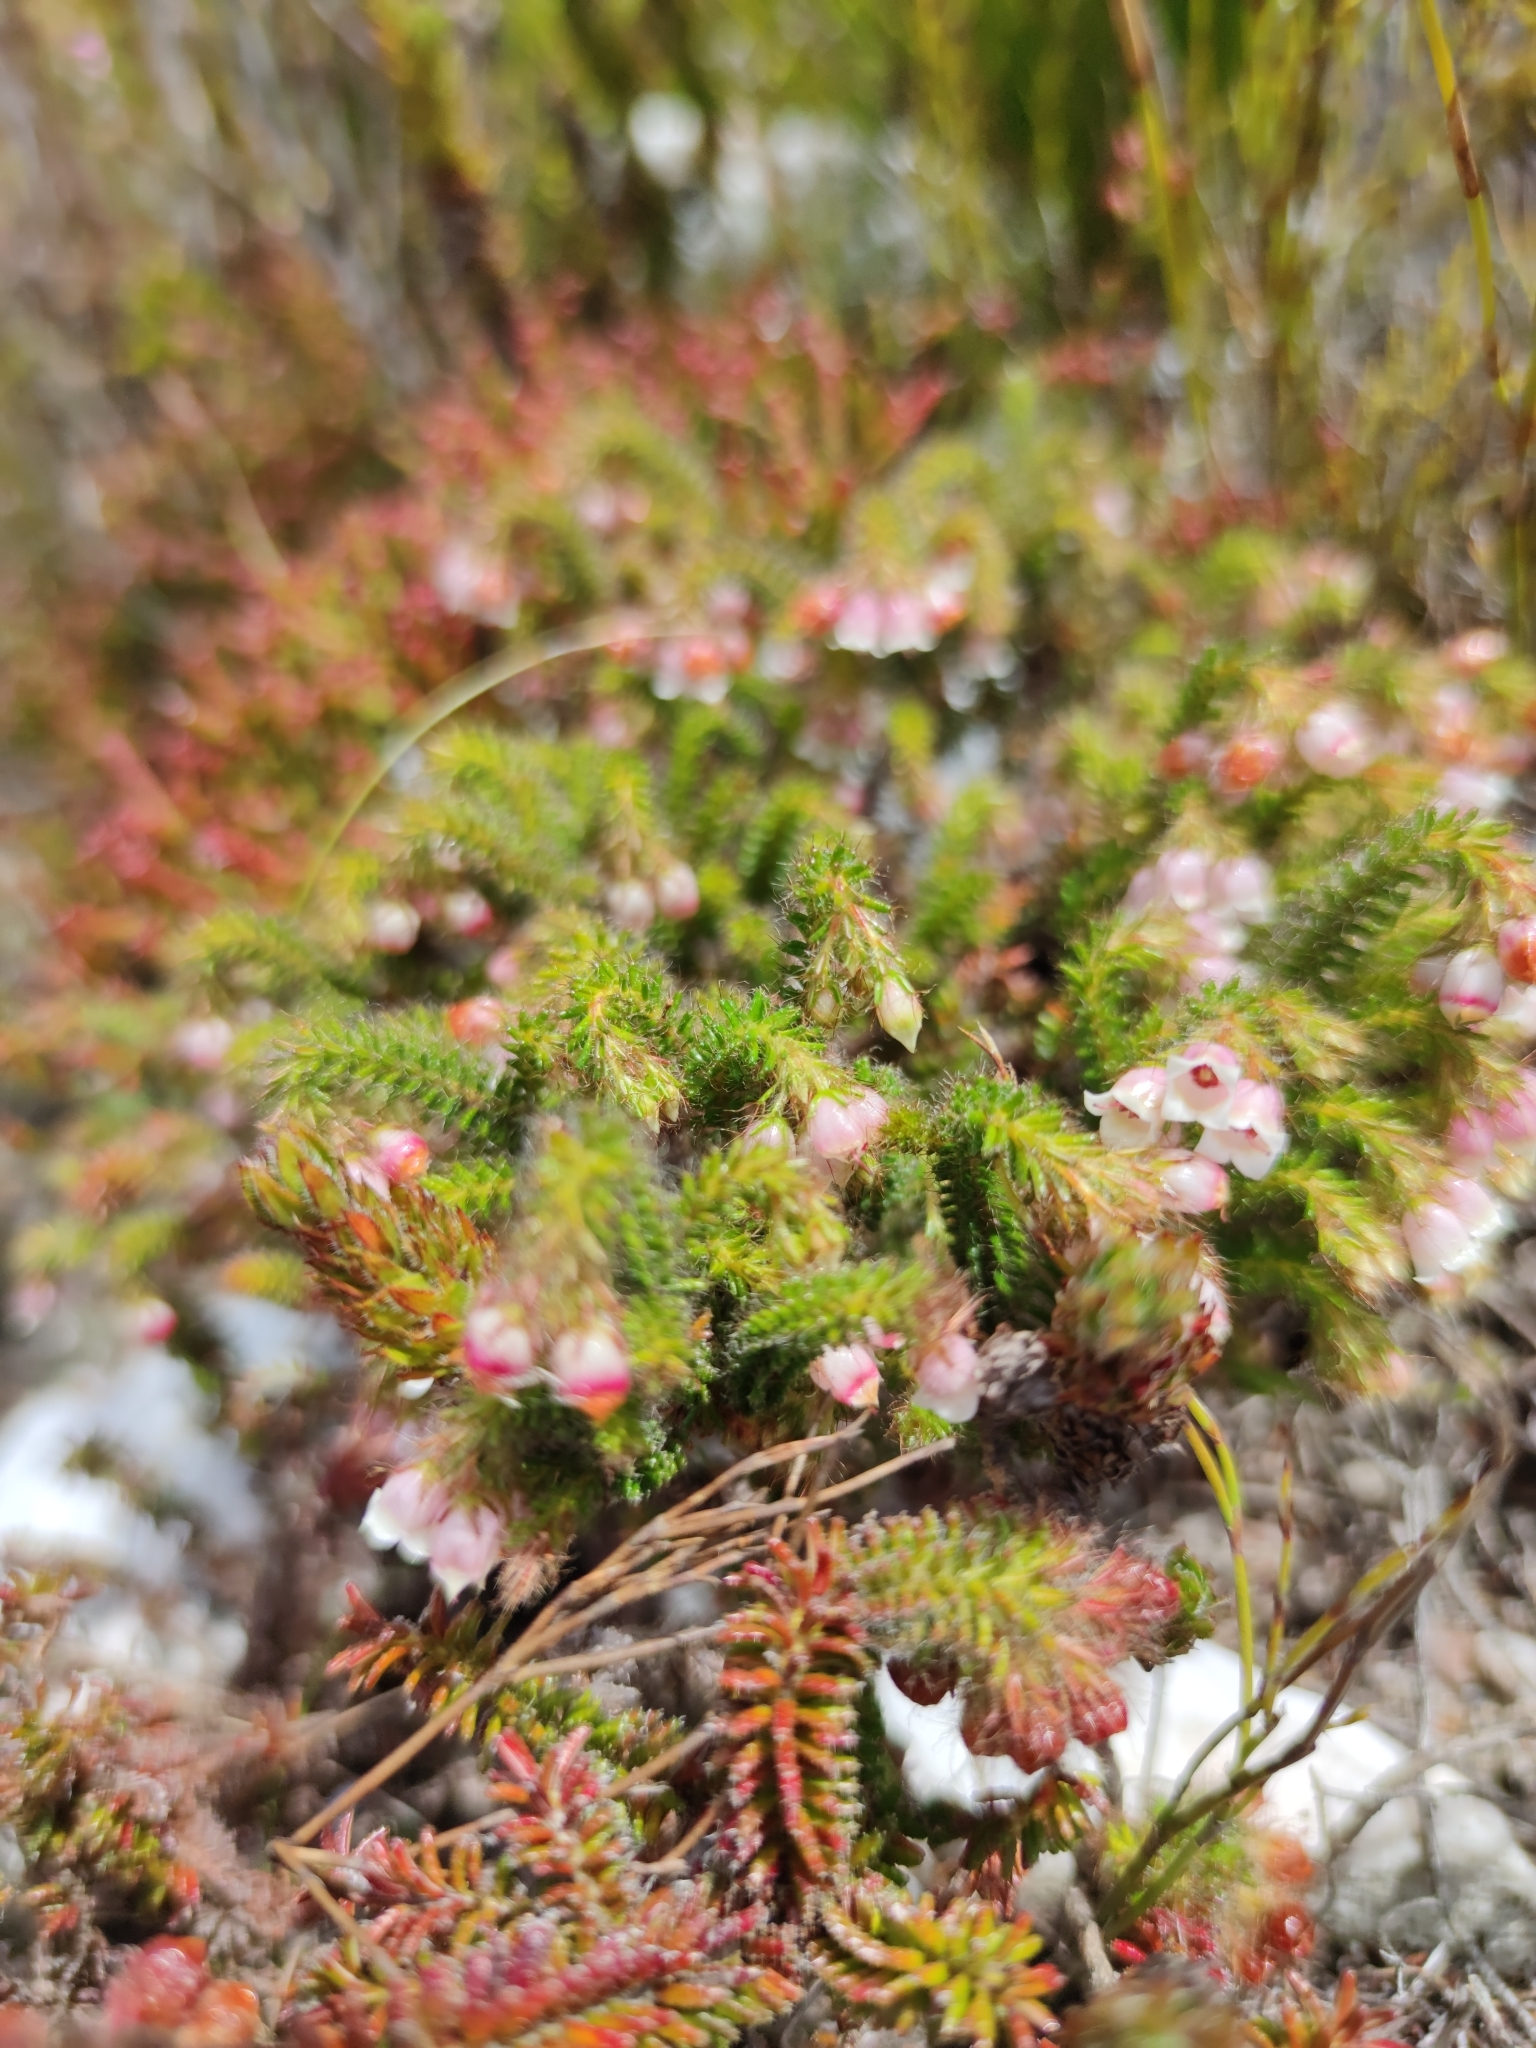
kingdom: Plantae
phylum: Tracheophyta
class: Magnoliopsida
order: Ericales
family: Ericaceae
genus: Erica
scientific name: Erica cygnea
